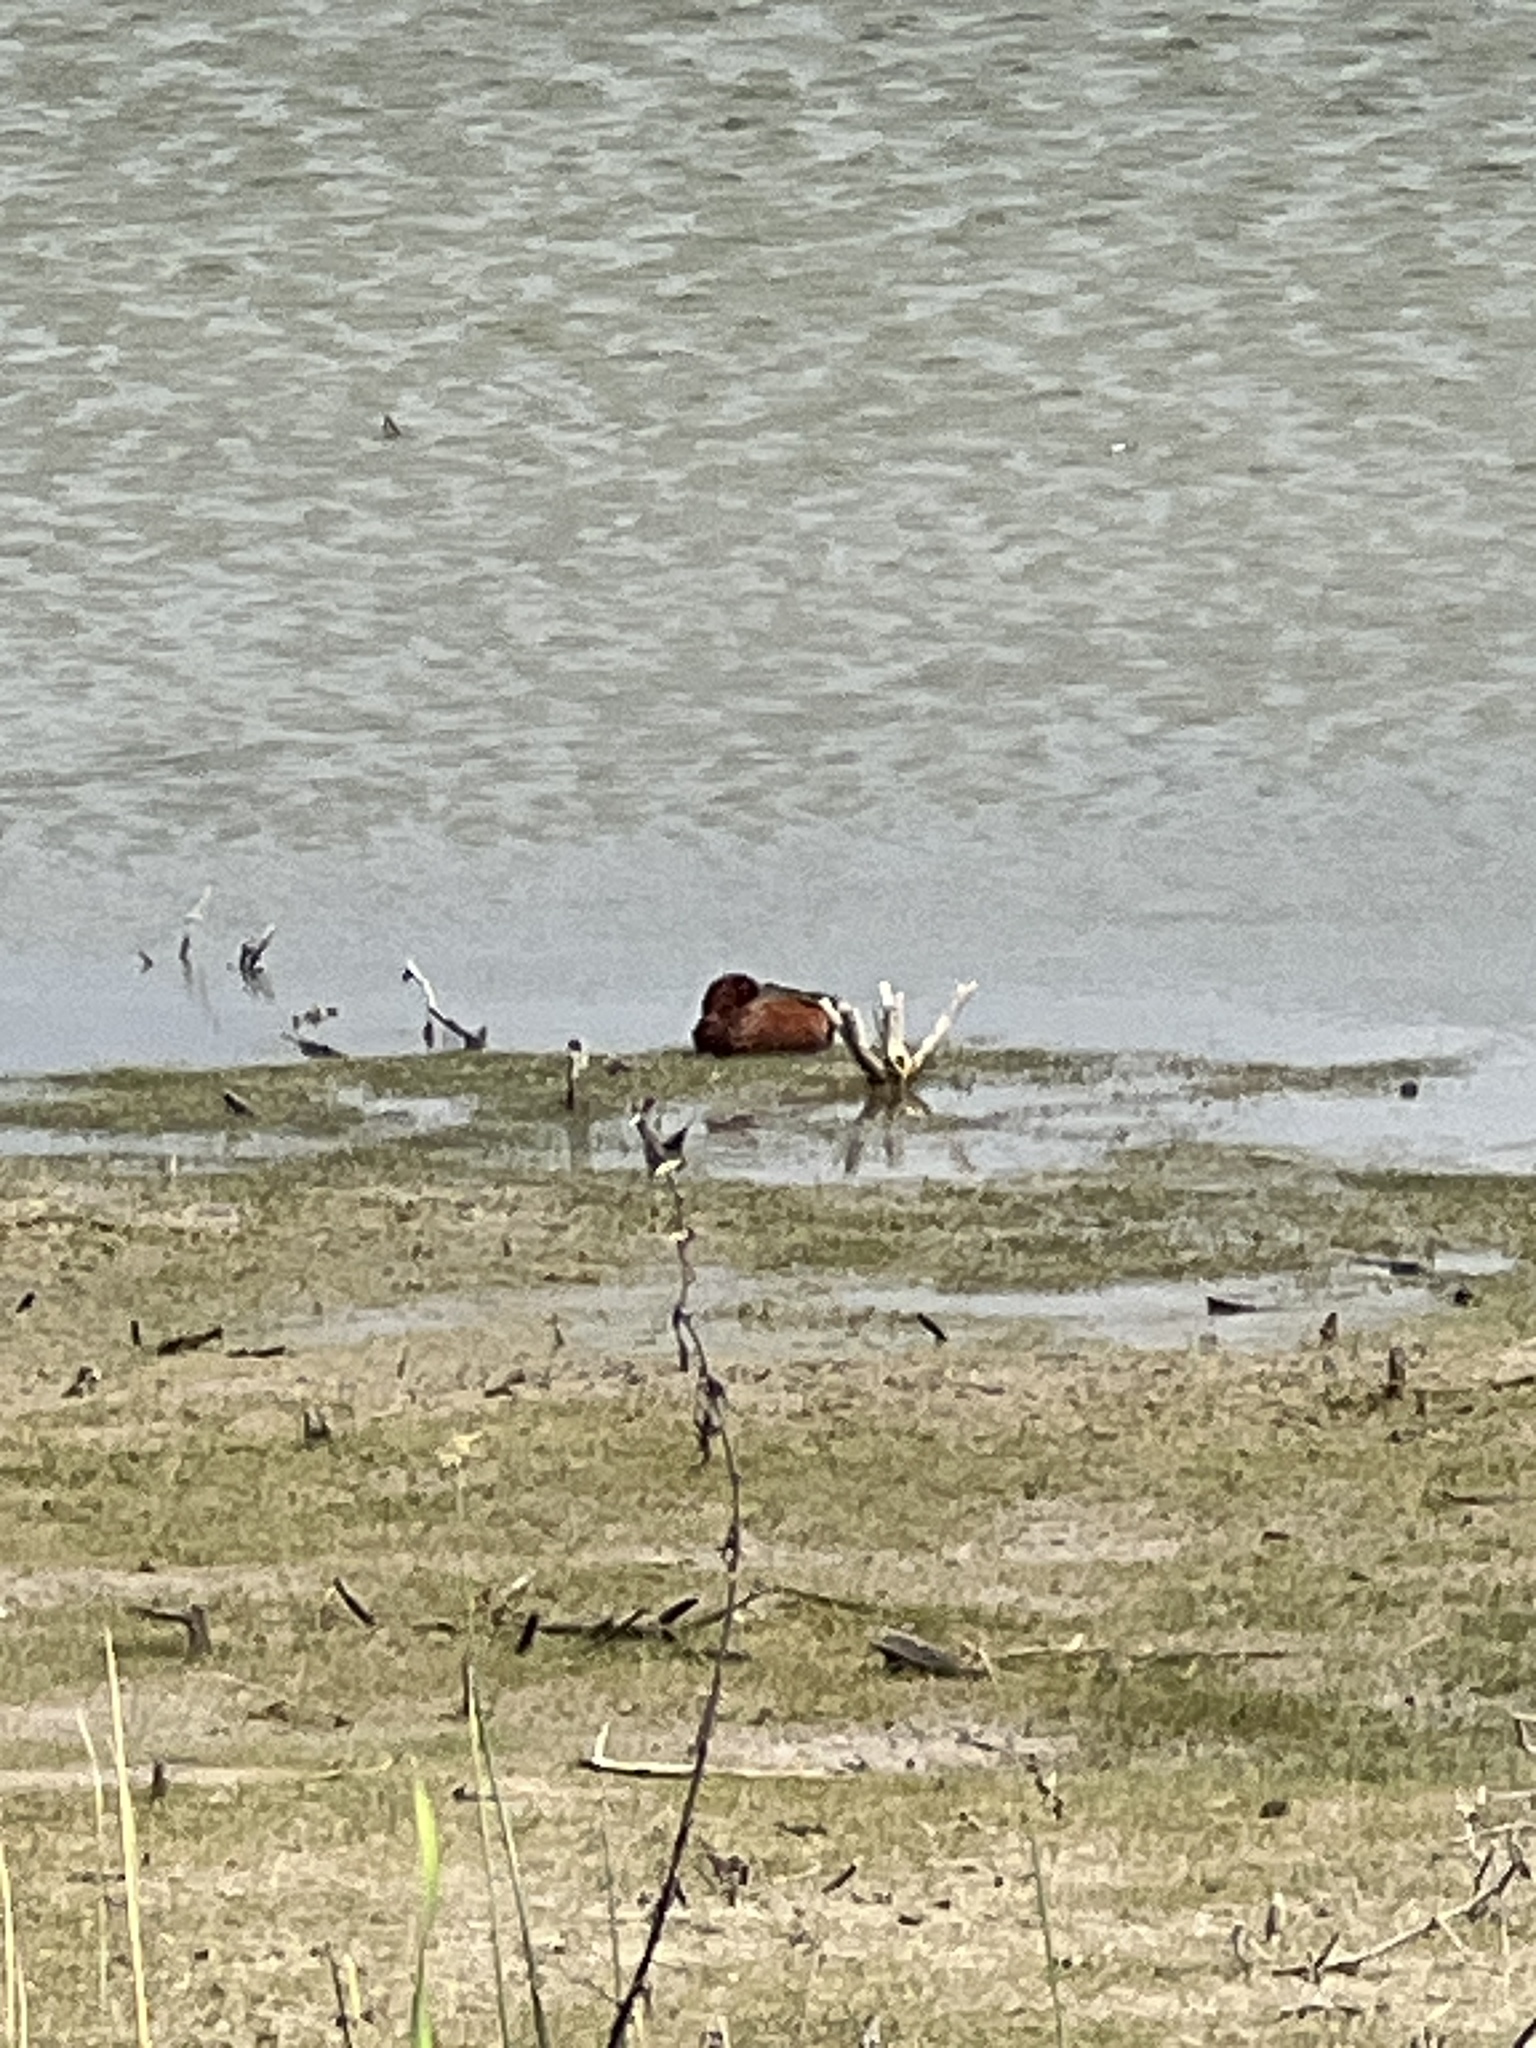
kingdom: Animalia
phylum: Chordata
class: Aves
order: Anseriformes
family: Anatidae
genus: Spatula
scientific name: Spatula cyanoptera
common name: Cinnamon teal
